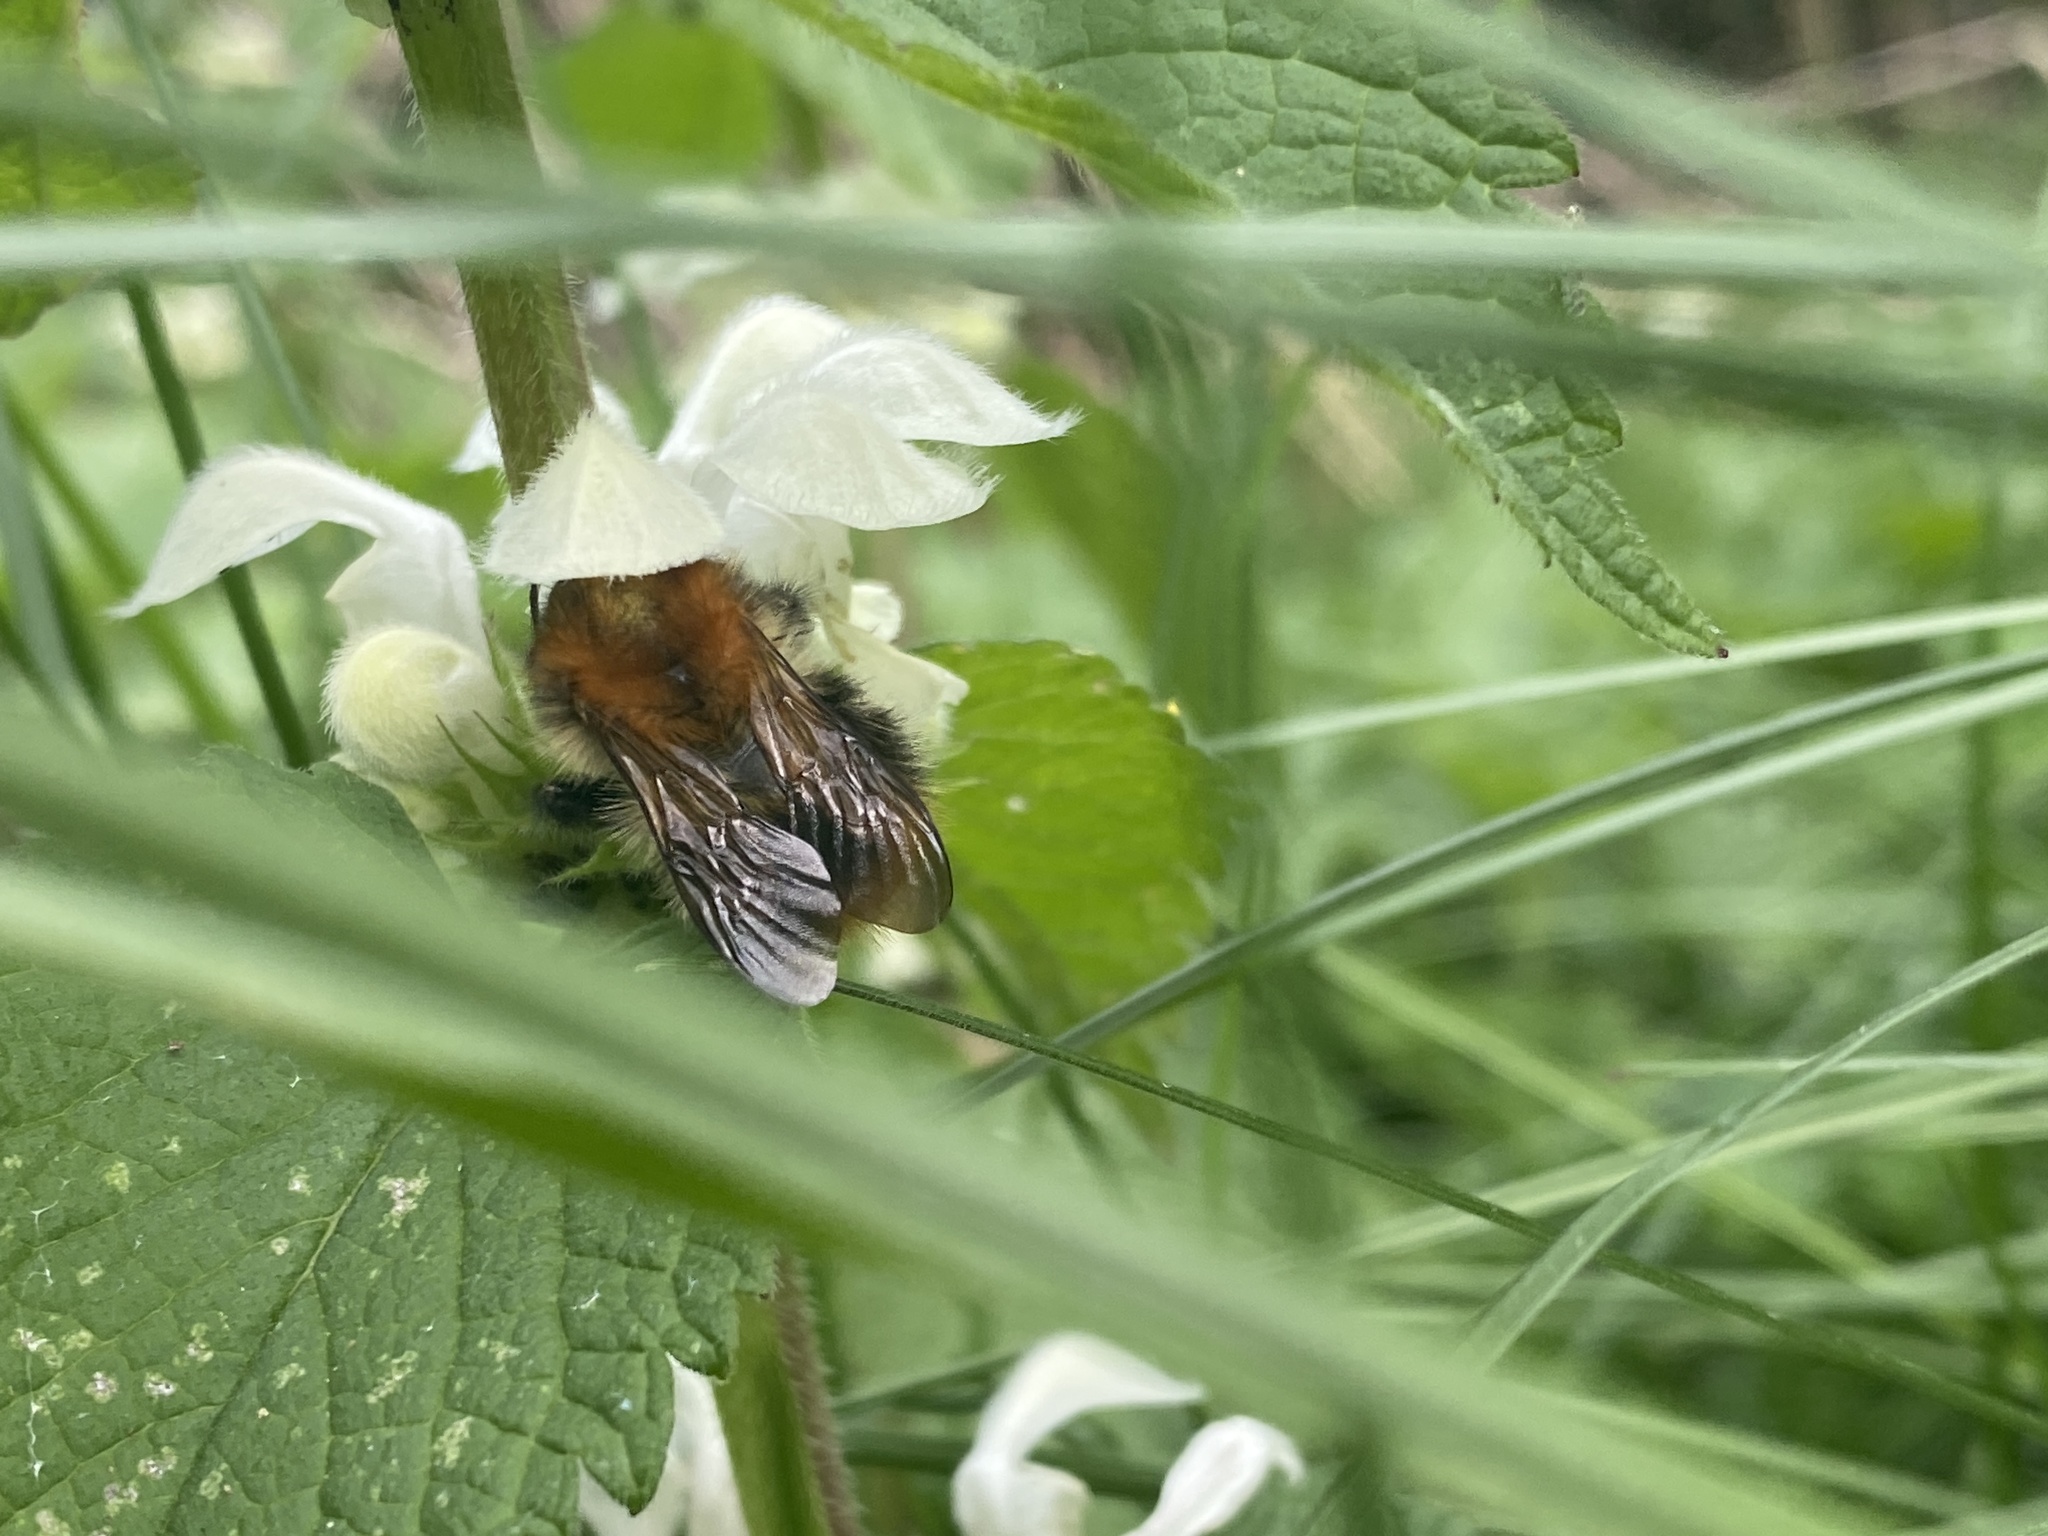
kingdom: Animalia
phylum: Arthropoda
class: Insecta
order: Hymenoptera
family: Apidae
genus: Bombus
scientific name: Bombus pascuorum
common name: Common carder bee
